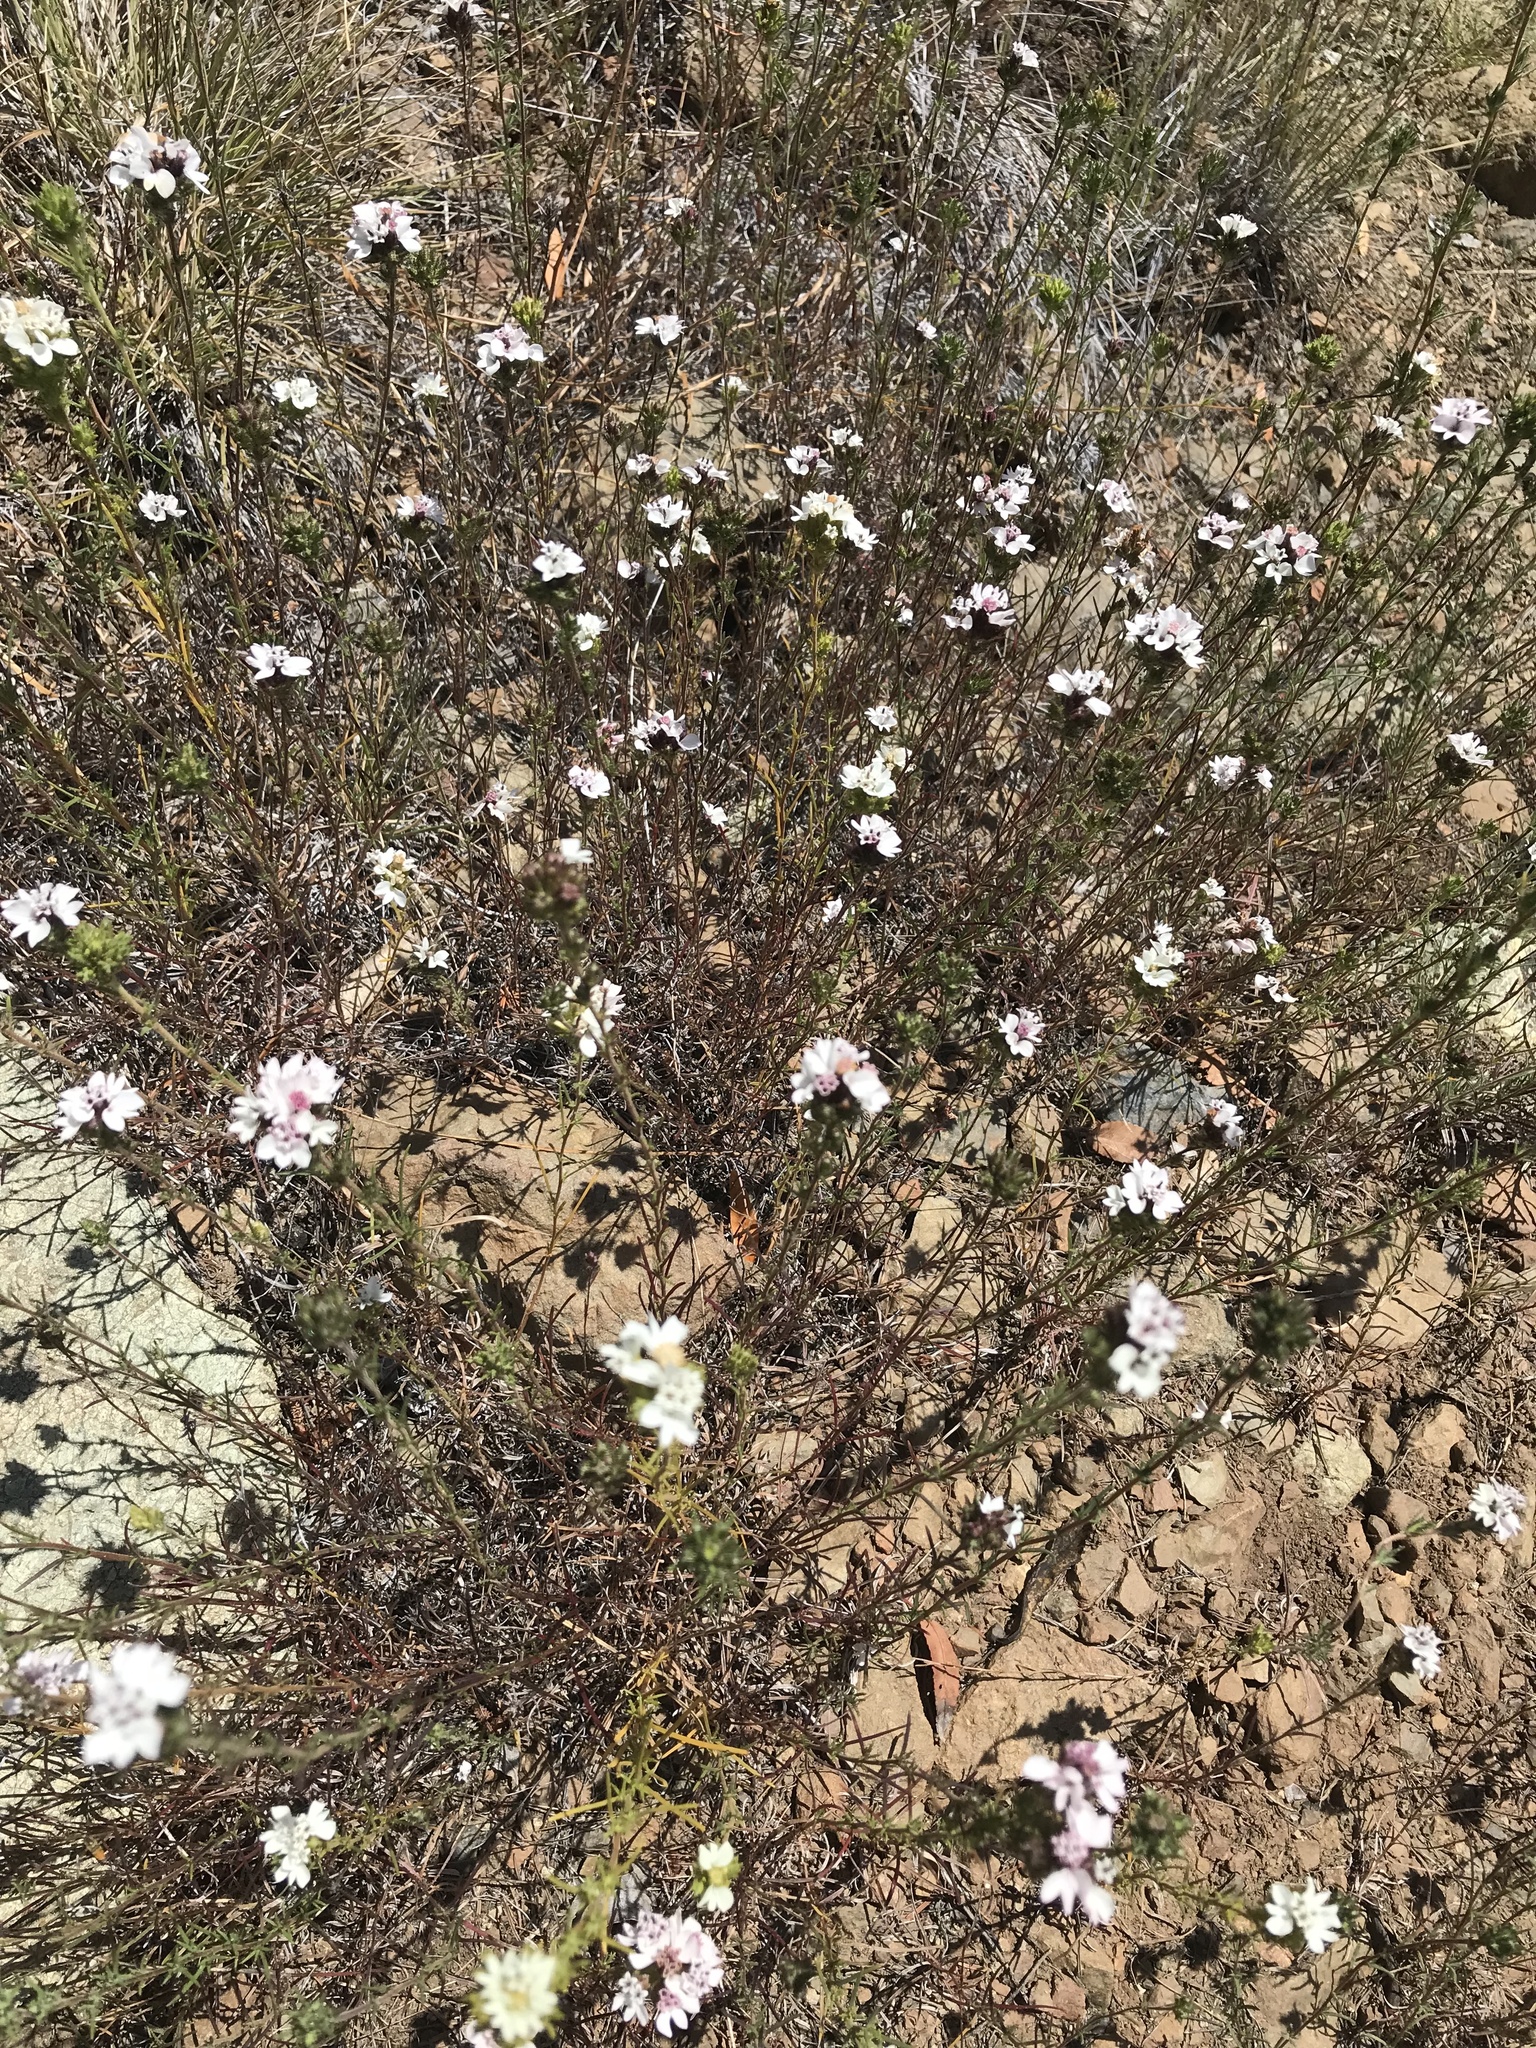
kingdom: Plantae
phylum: Tracheophyta
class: Magnoliopsida
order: Asterales
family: Asteraceae
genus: Calycadenia
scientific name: Calycadenia multiglandulosa
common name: Sticky calycadenia
